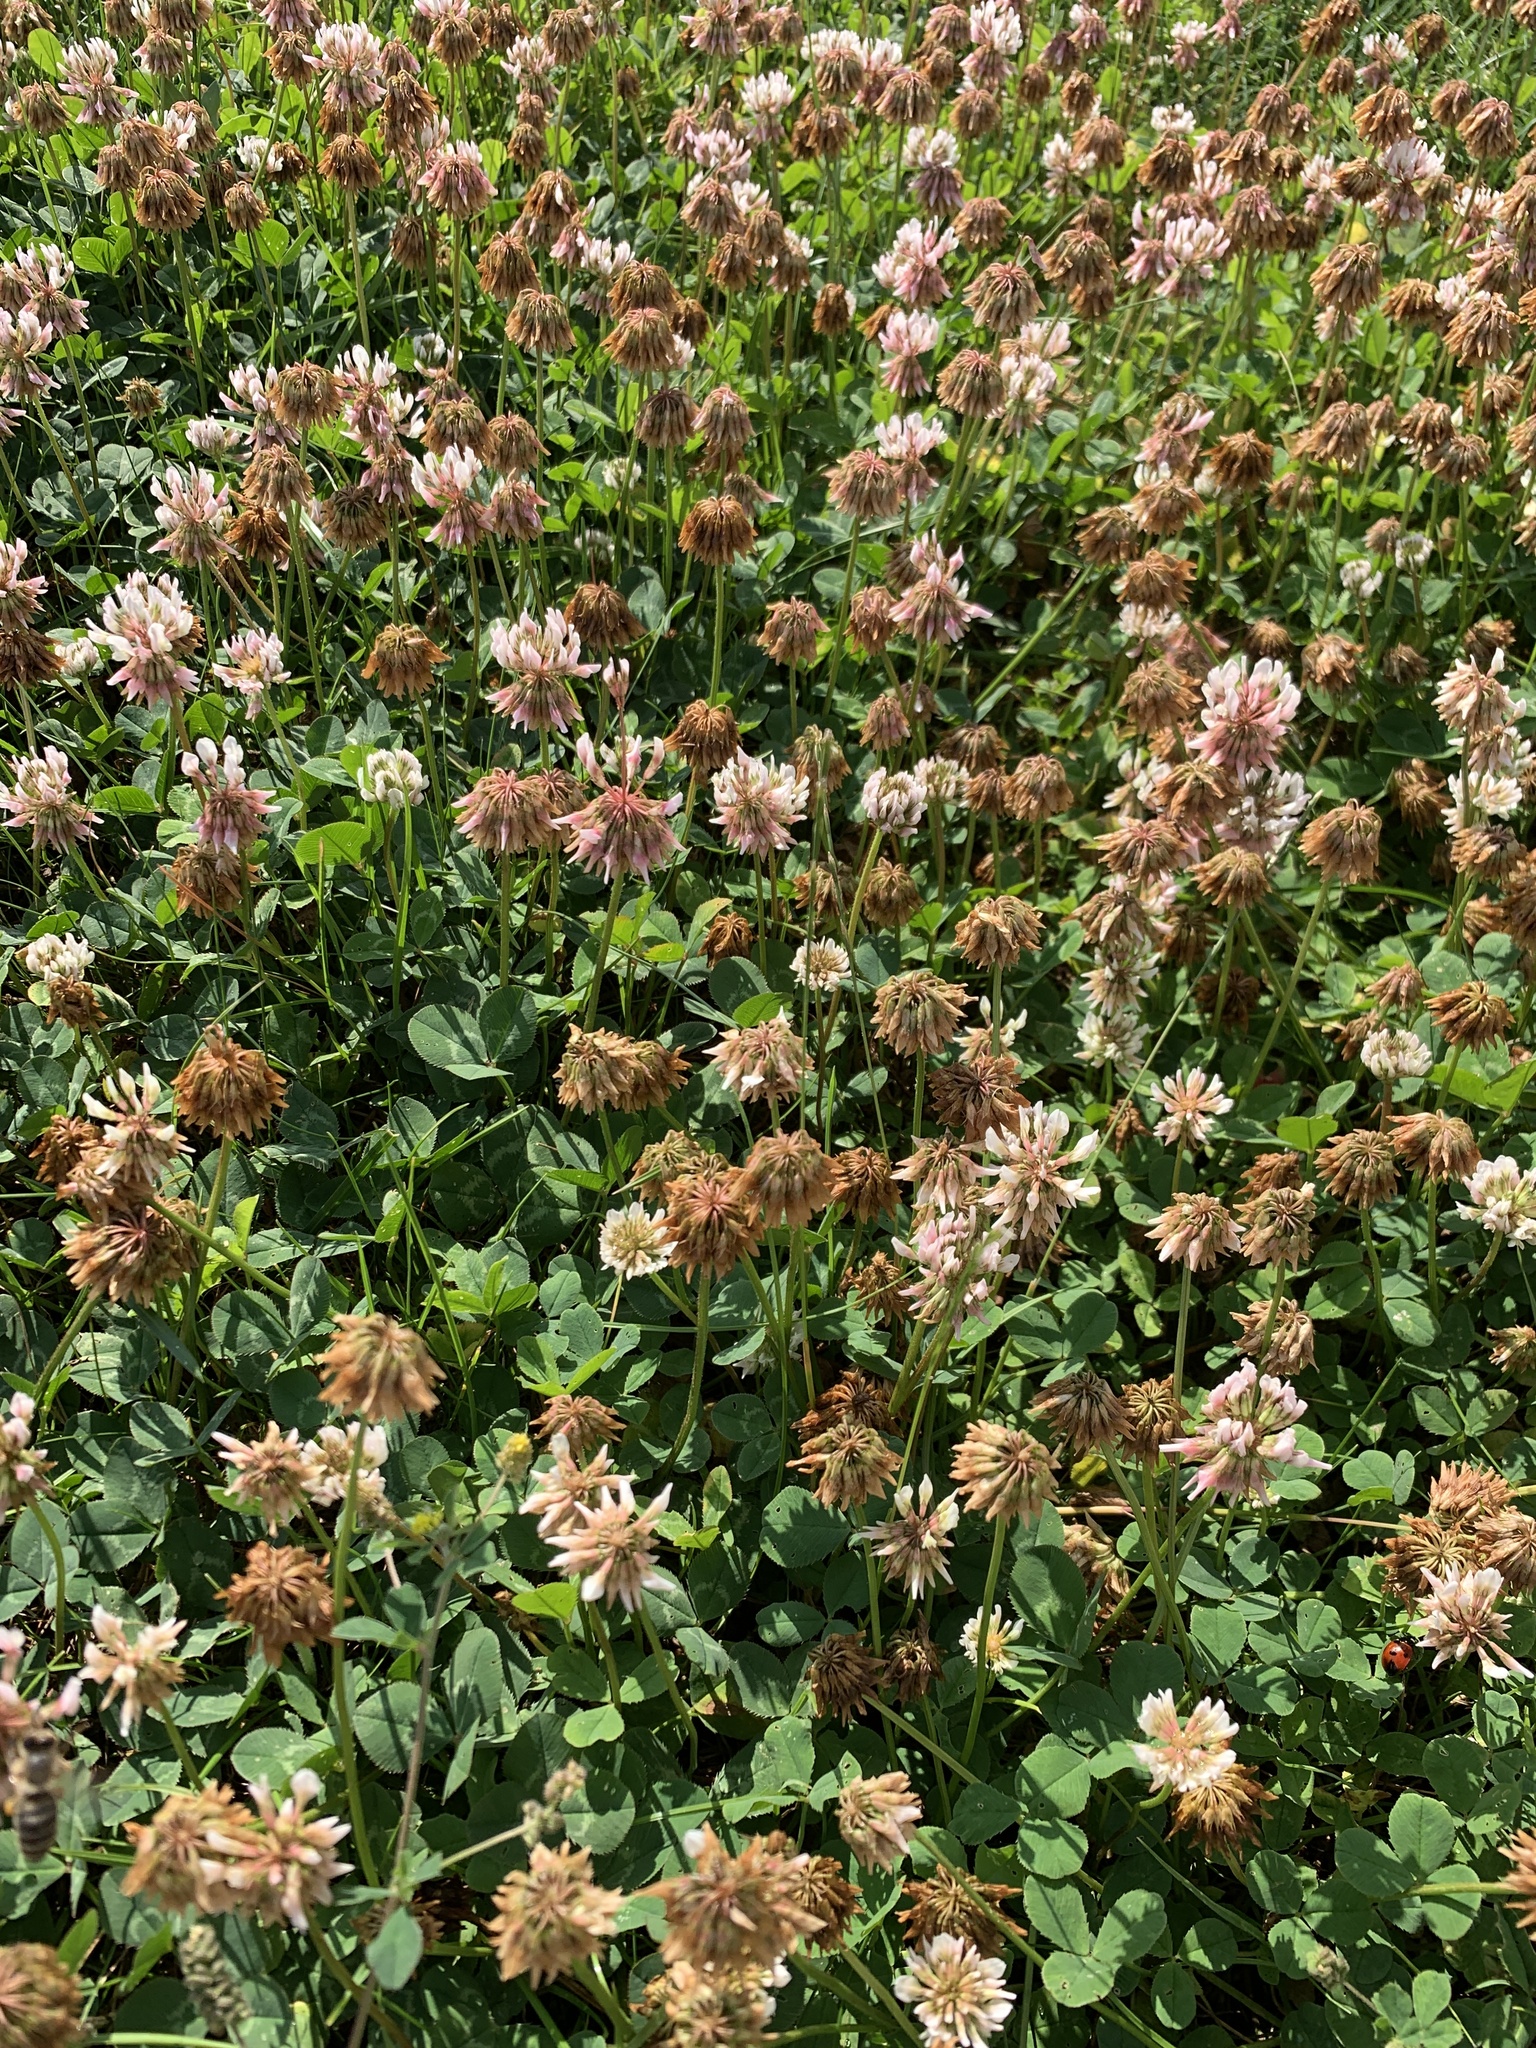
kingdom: Plantae
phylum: Tracheophyta
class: Magnoliopsida
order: Fabales
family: Fabaceae
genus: Trifolium
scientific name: Trifolium repens
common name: White clover
